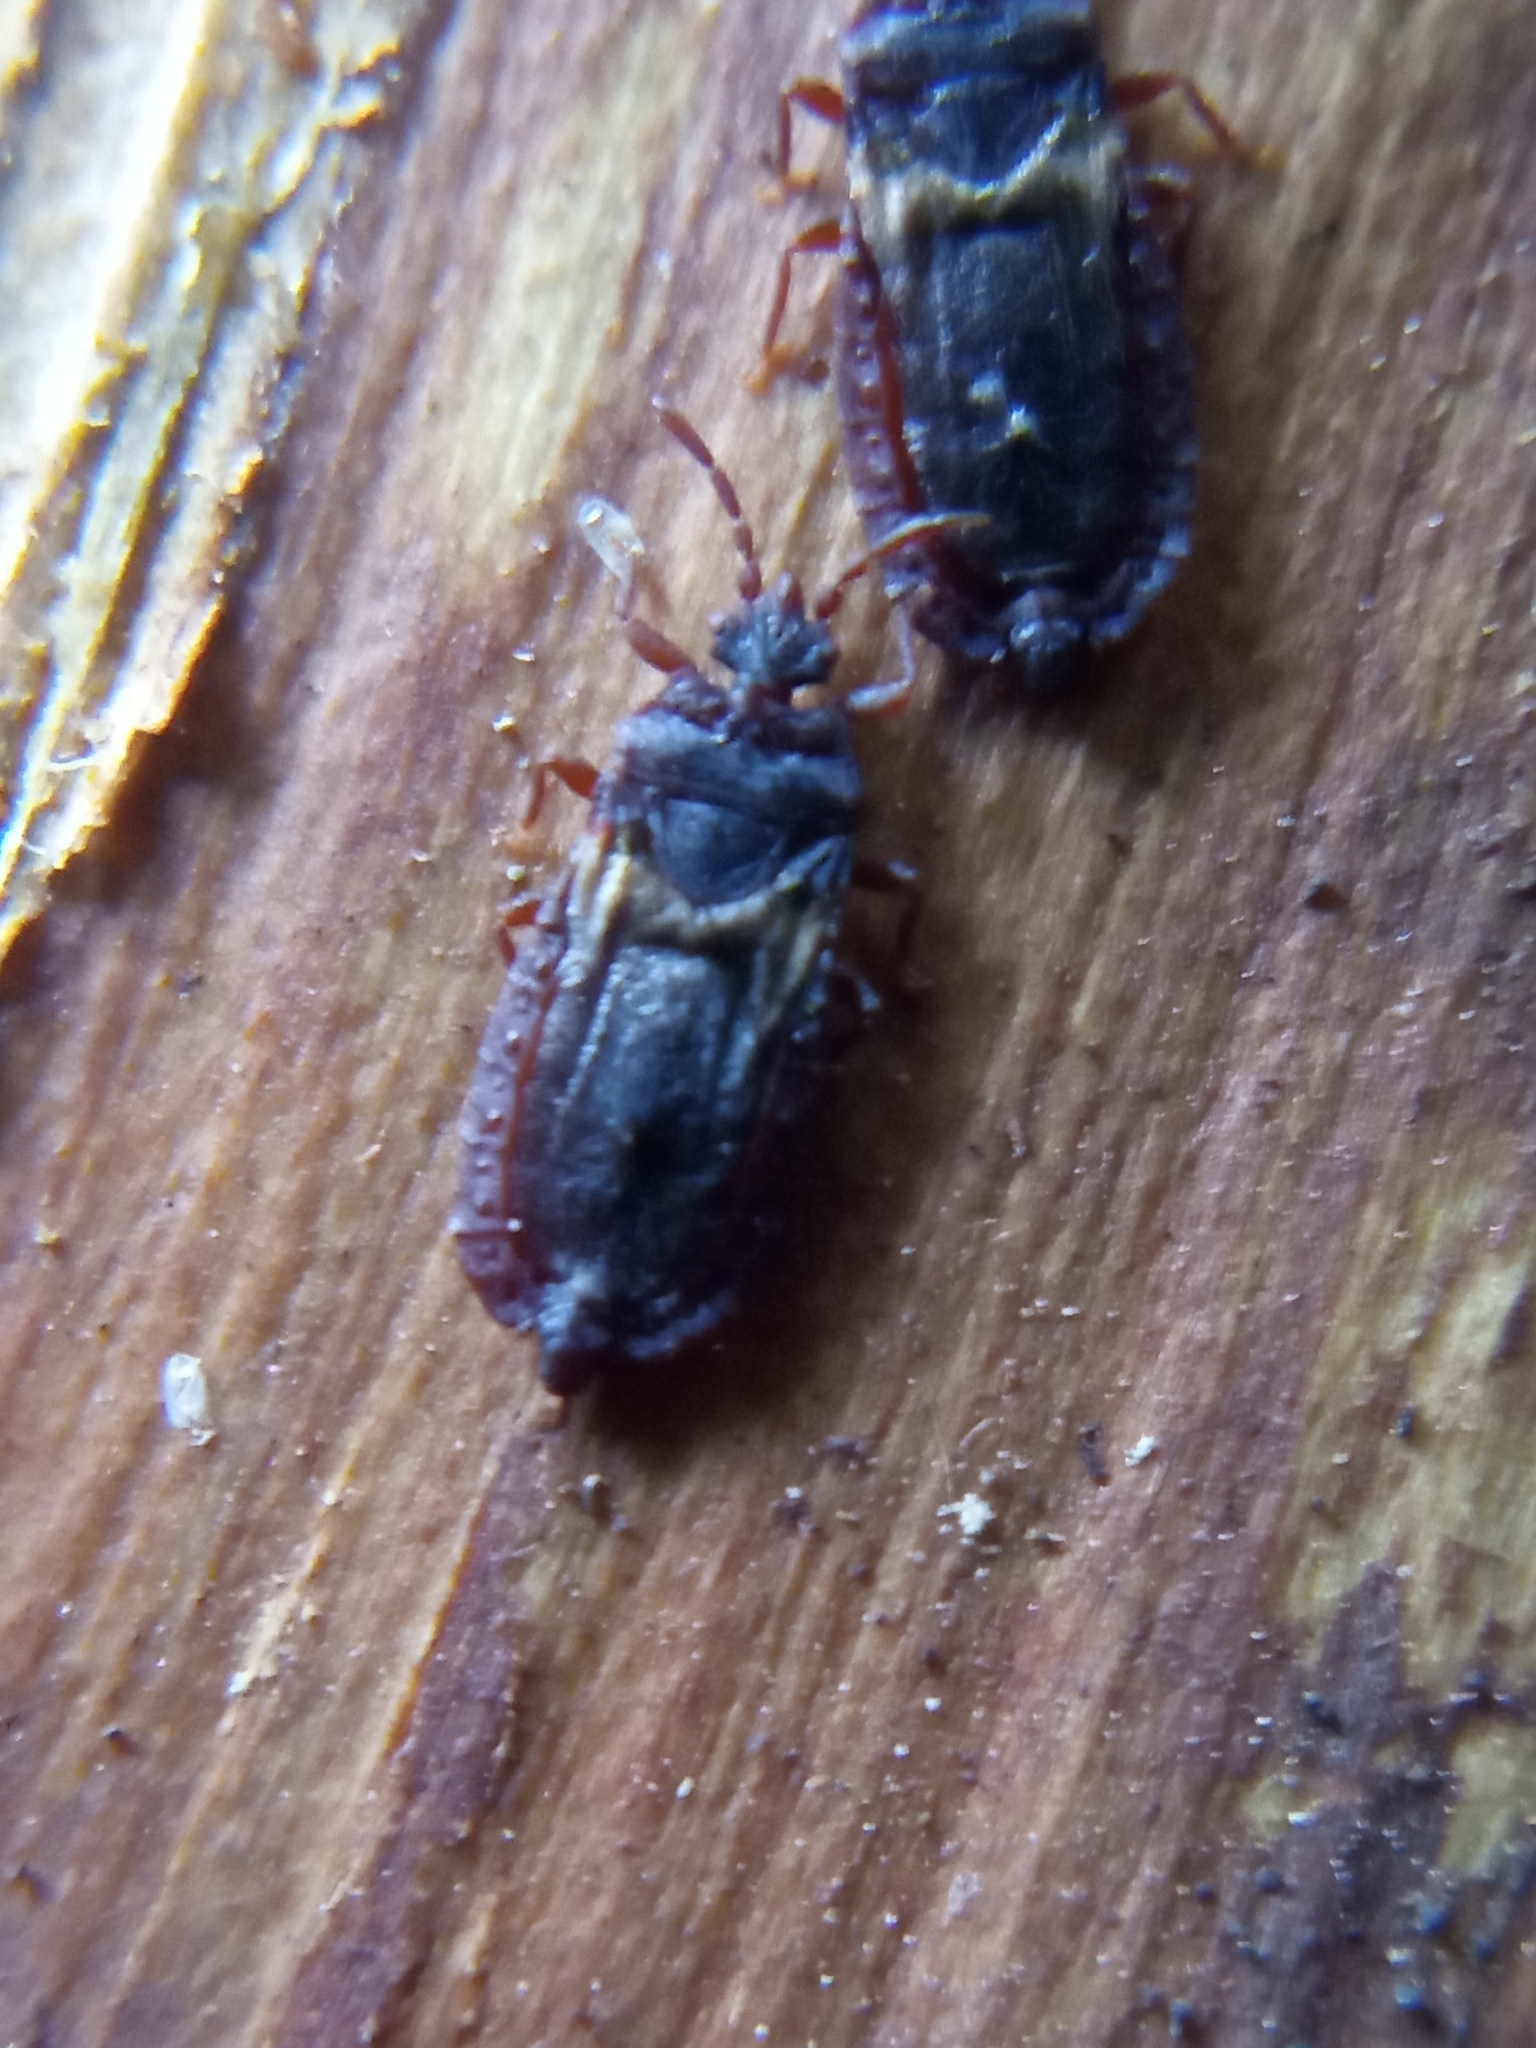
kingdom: Animalia
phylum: Arthropoda
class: Insecta
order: Hemiptera
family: Aradidae
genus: Aneurus
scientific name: Aneurus laevis
